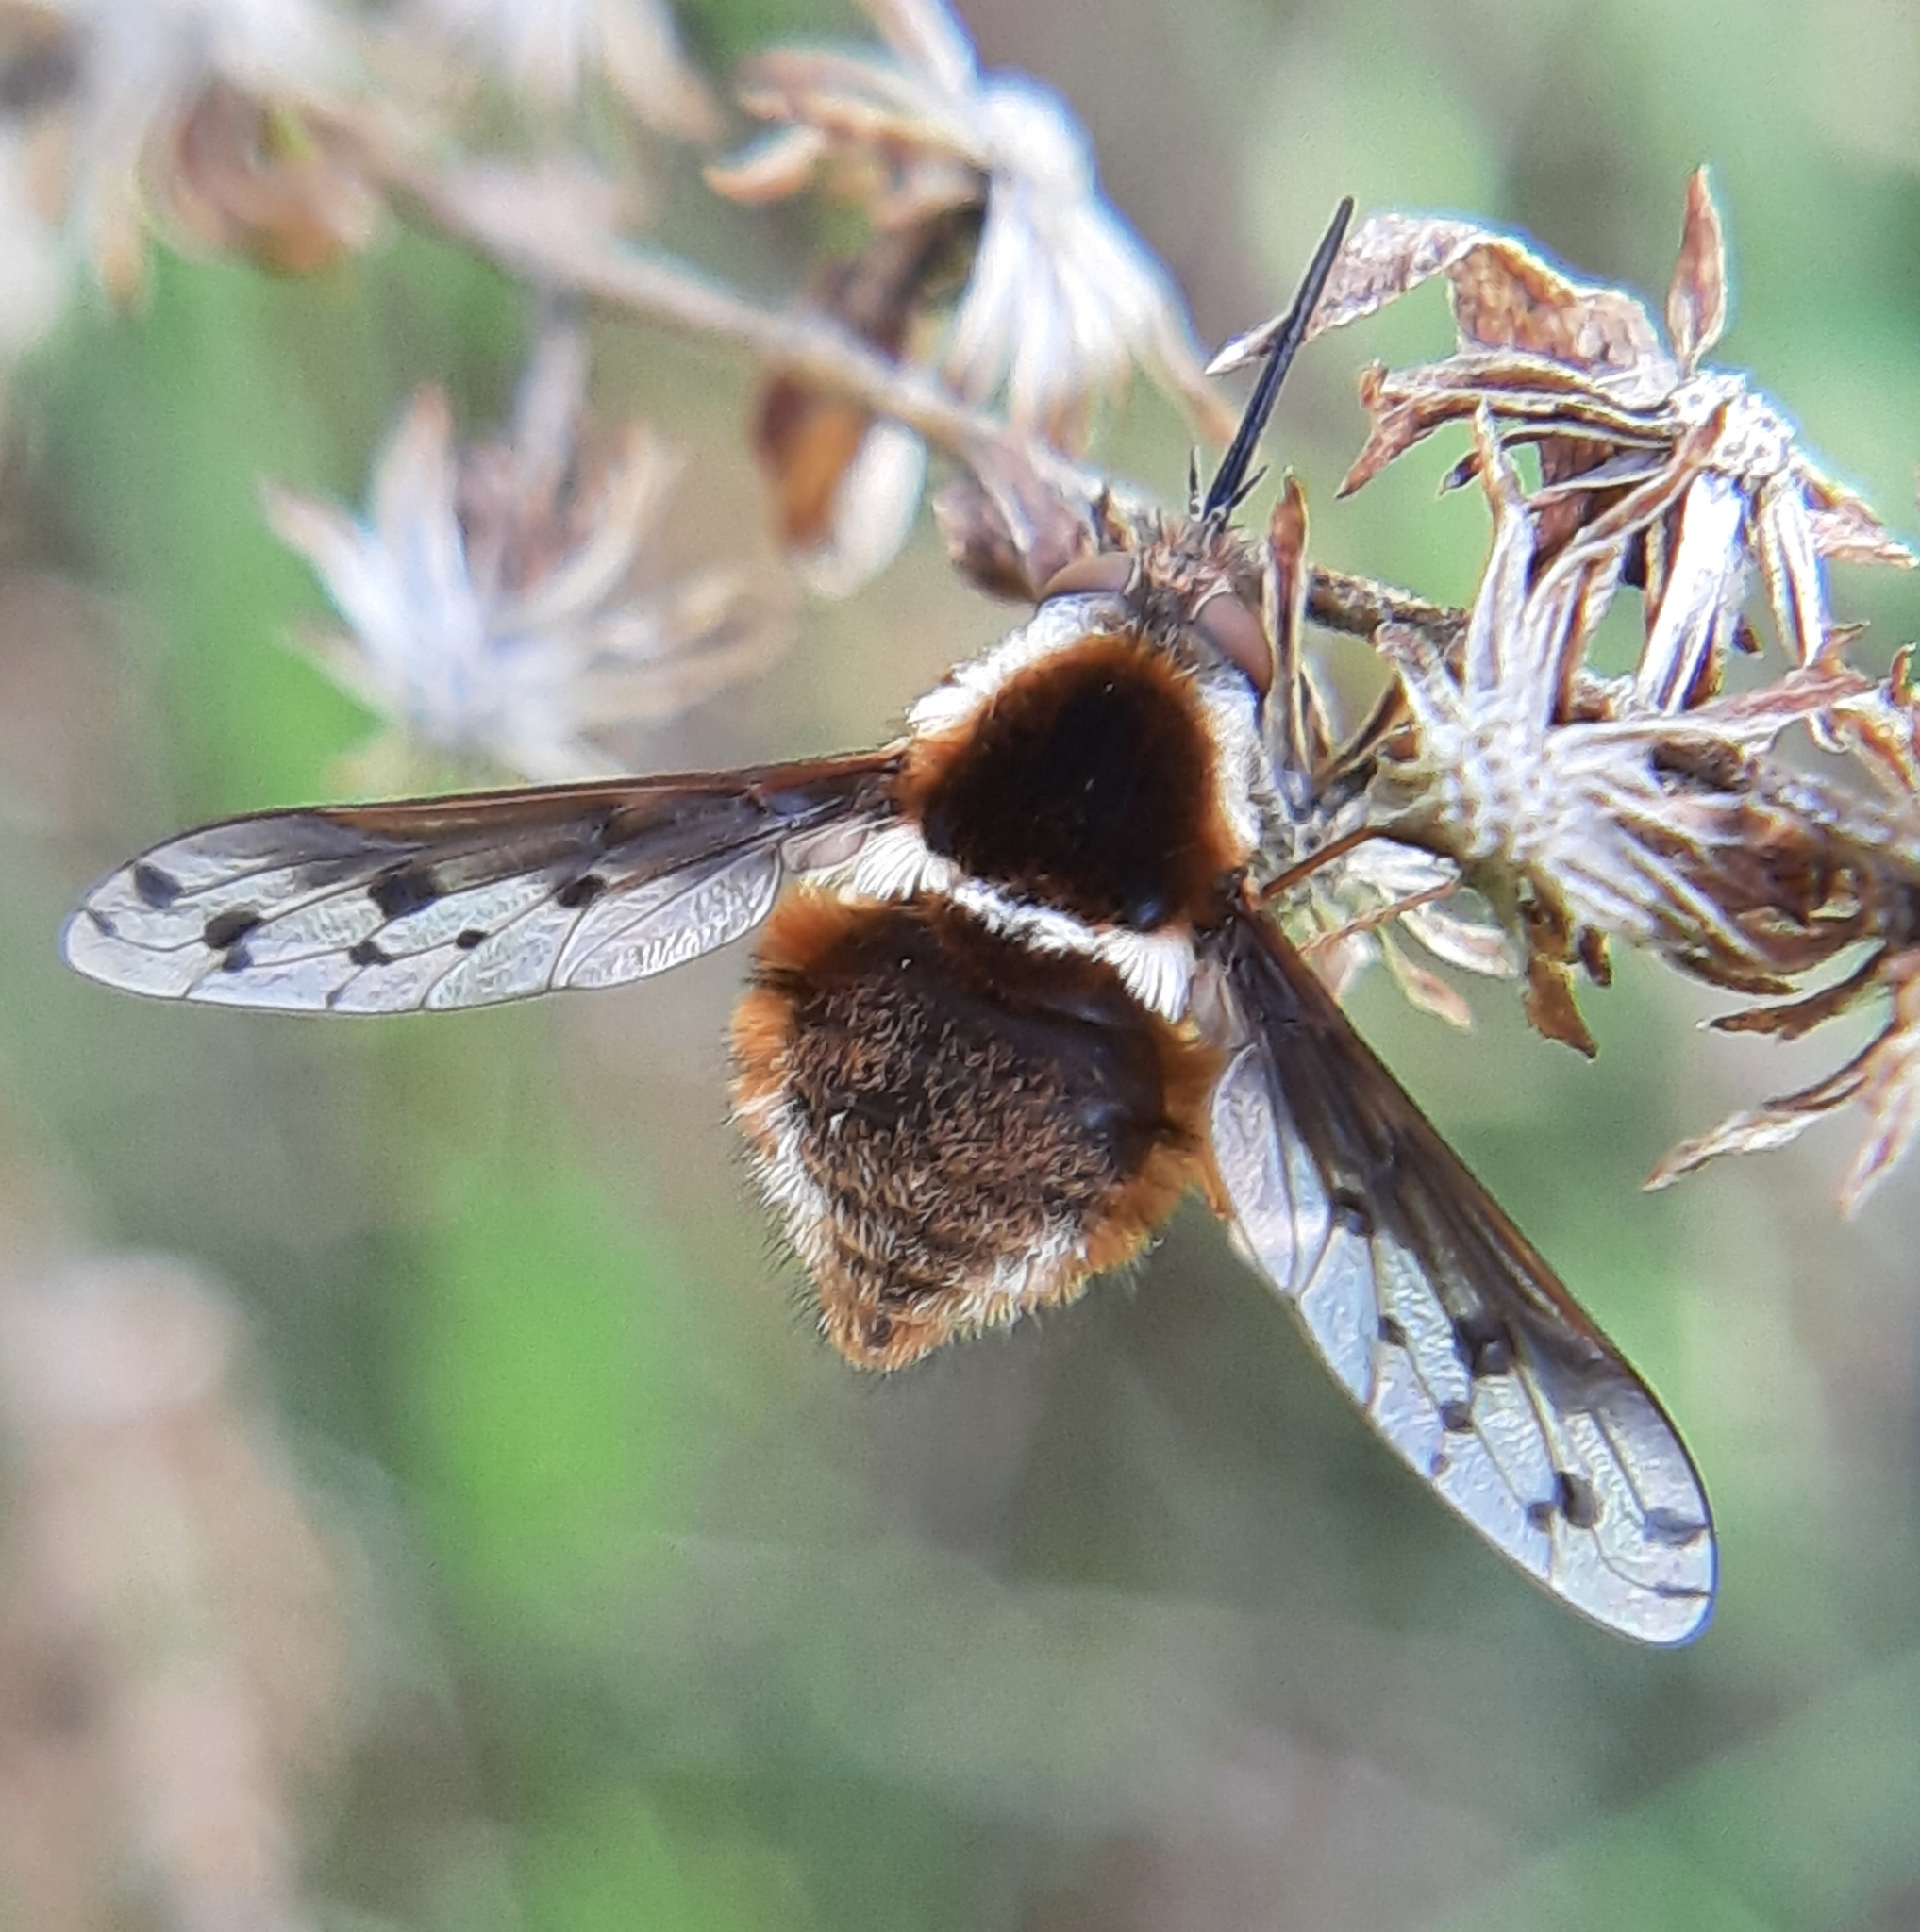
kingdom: Animalia
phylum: Arthropoda
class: Insecta
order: Diptera
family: Bombyliidae
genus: Bombylius
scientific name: Bombylius pygmaeus
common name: Pygmy bee fly
